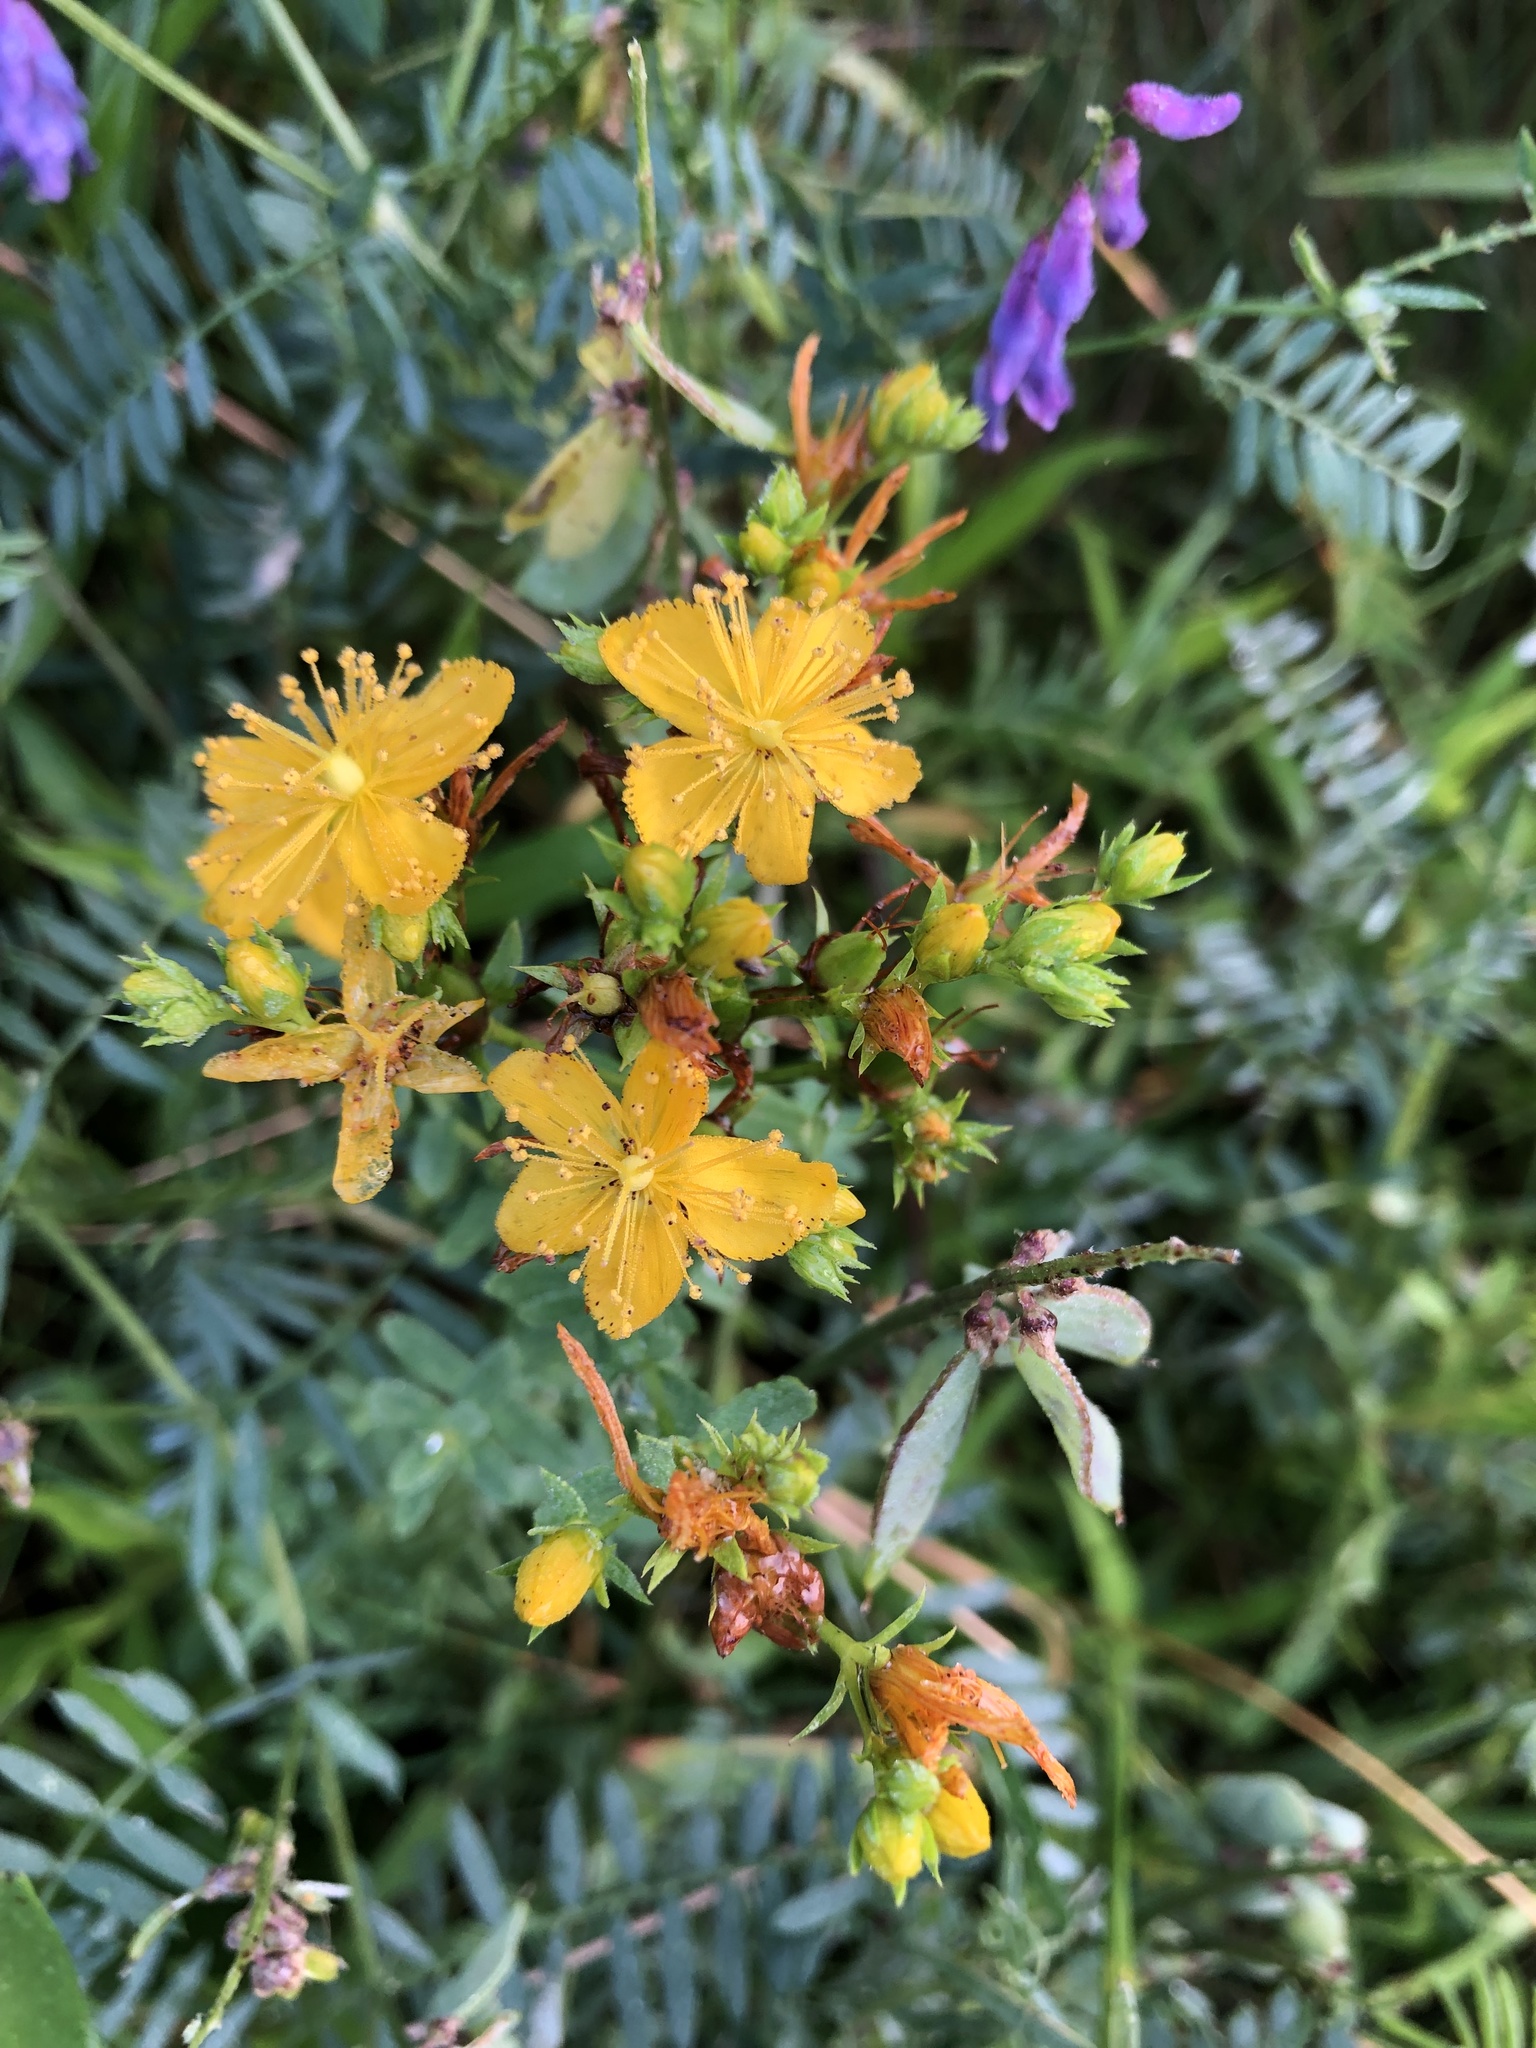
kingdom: Plantae
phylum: Tracheophyta
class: Magnoliopsida
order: Malpighiales
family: Hypericaceae
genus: Hypericum
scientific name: Hypericum perforatum
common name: Common st. johnswort
